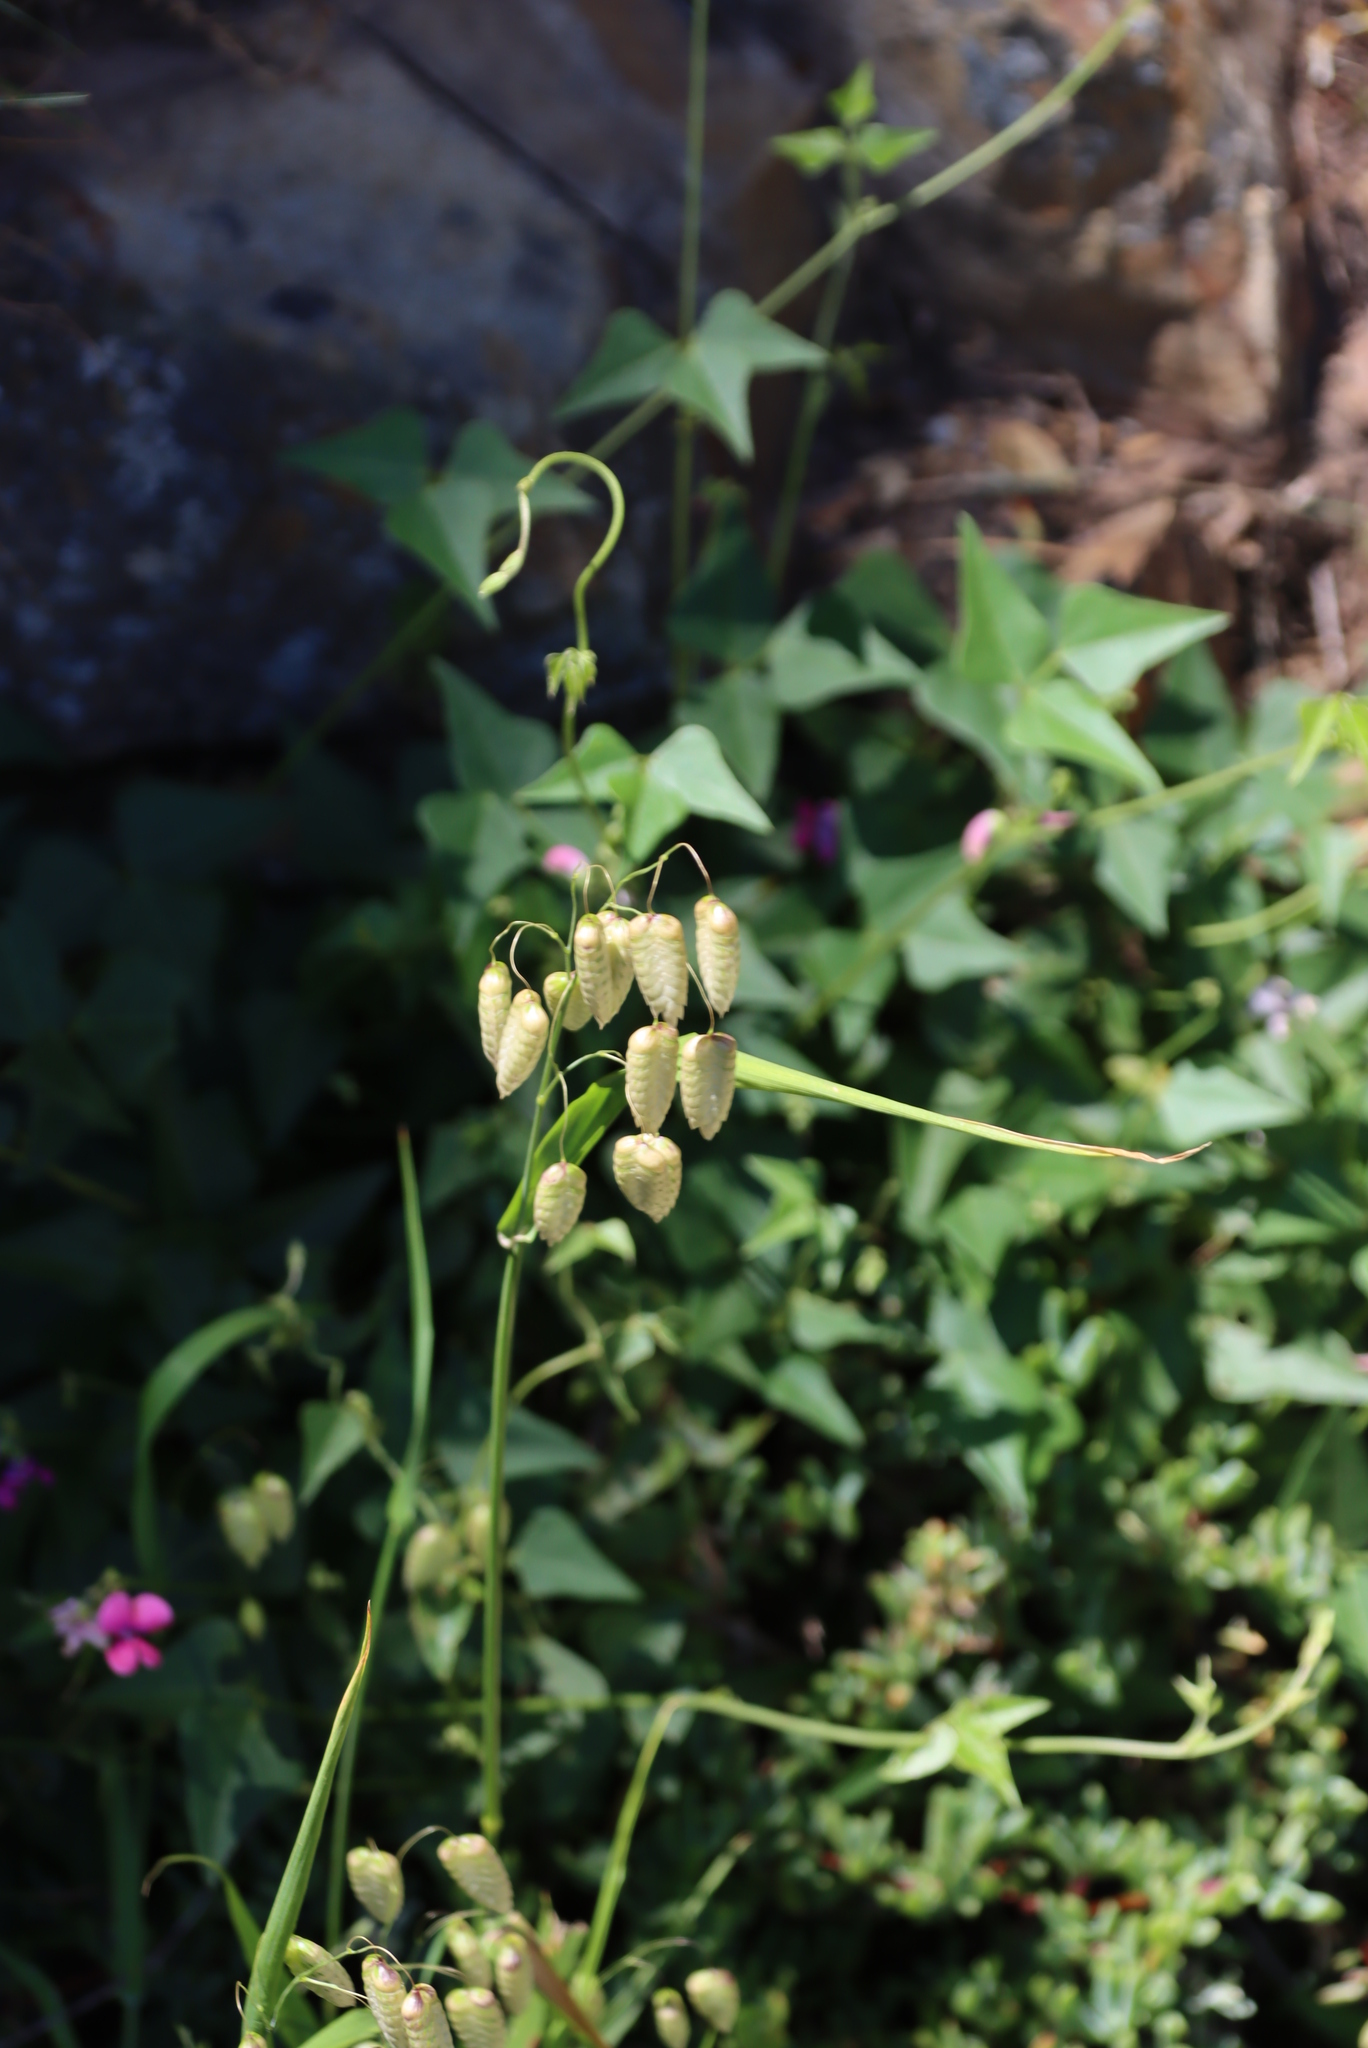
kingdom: Plantae
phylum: Tracheophyta
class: Liliopsida
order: Poales
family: Poaceae
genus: Briza
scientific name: Briza maxima
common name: Big quakinggrass
